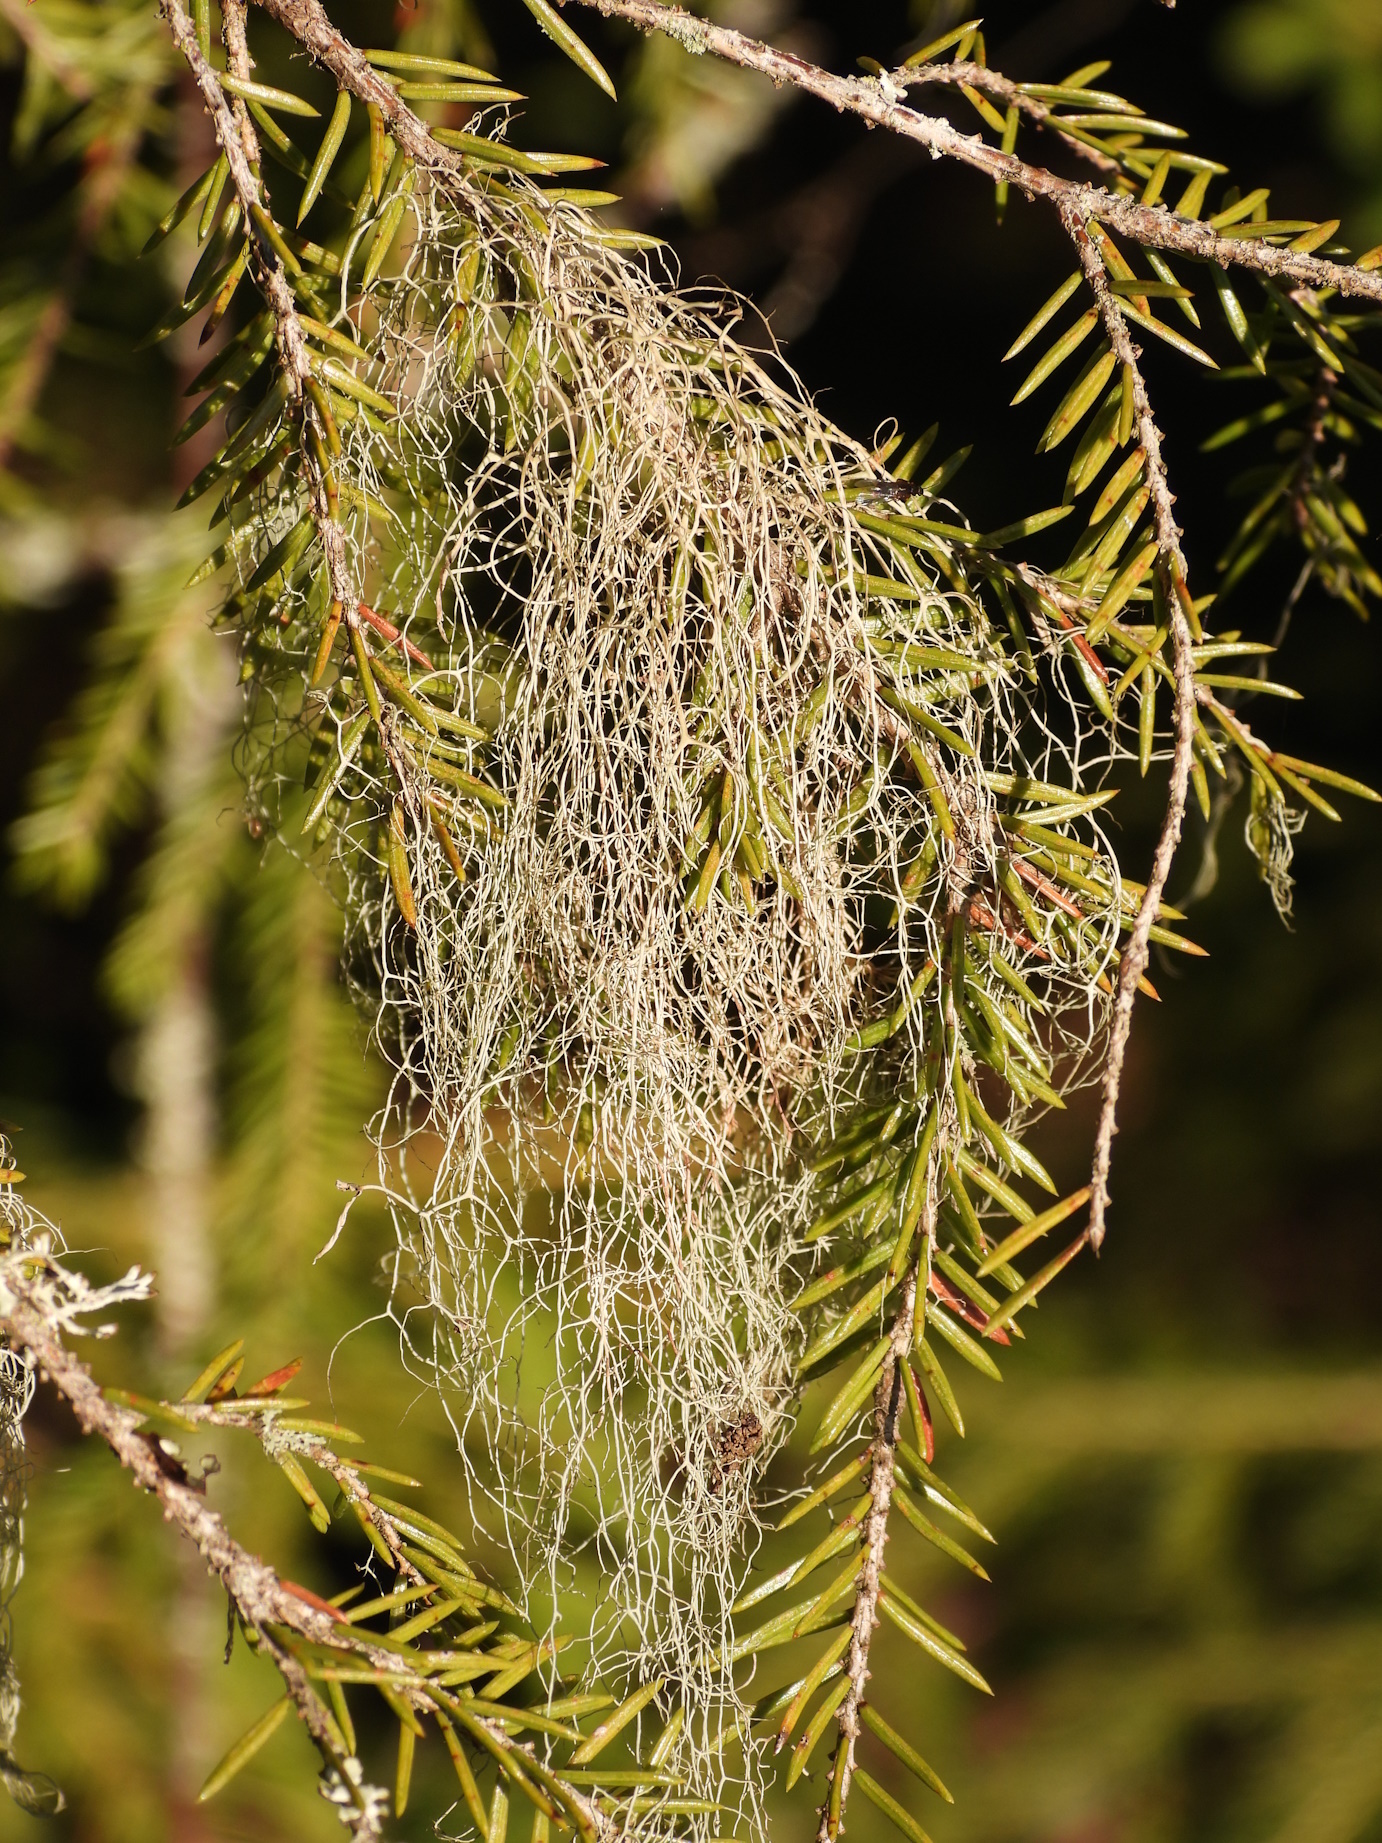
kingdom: Fungi
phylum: Ascomycota
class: Lecanoromycetes
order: Lecanorales
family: Parmeliaceae
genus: Bryoria
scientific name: Bryoria fuscescens
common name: Pale-footed horsehair lichen
